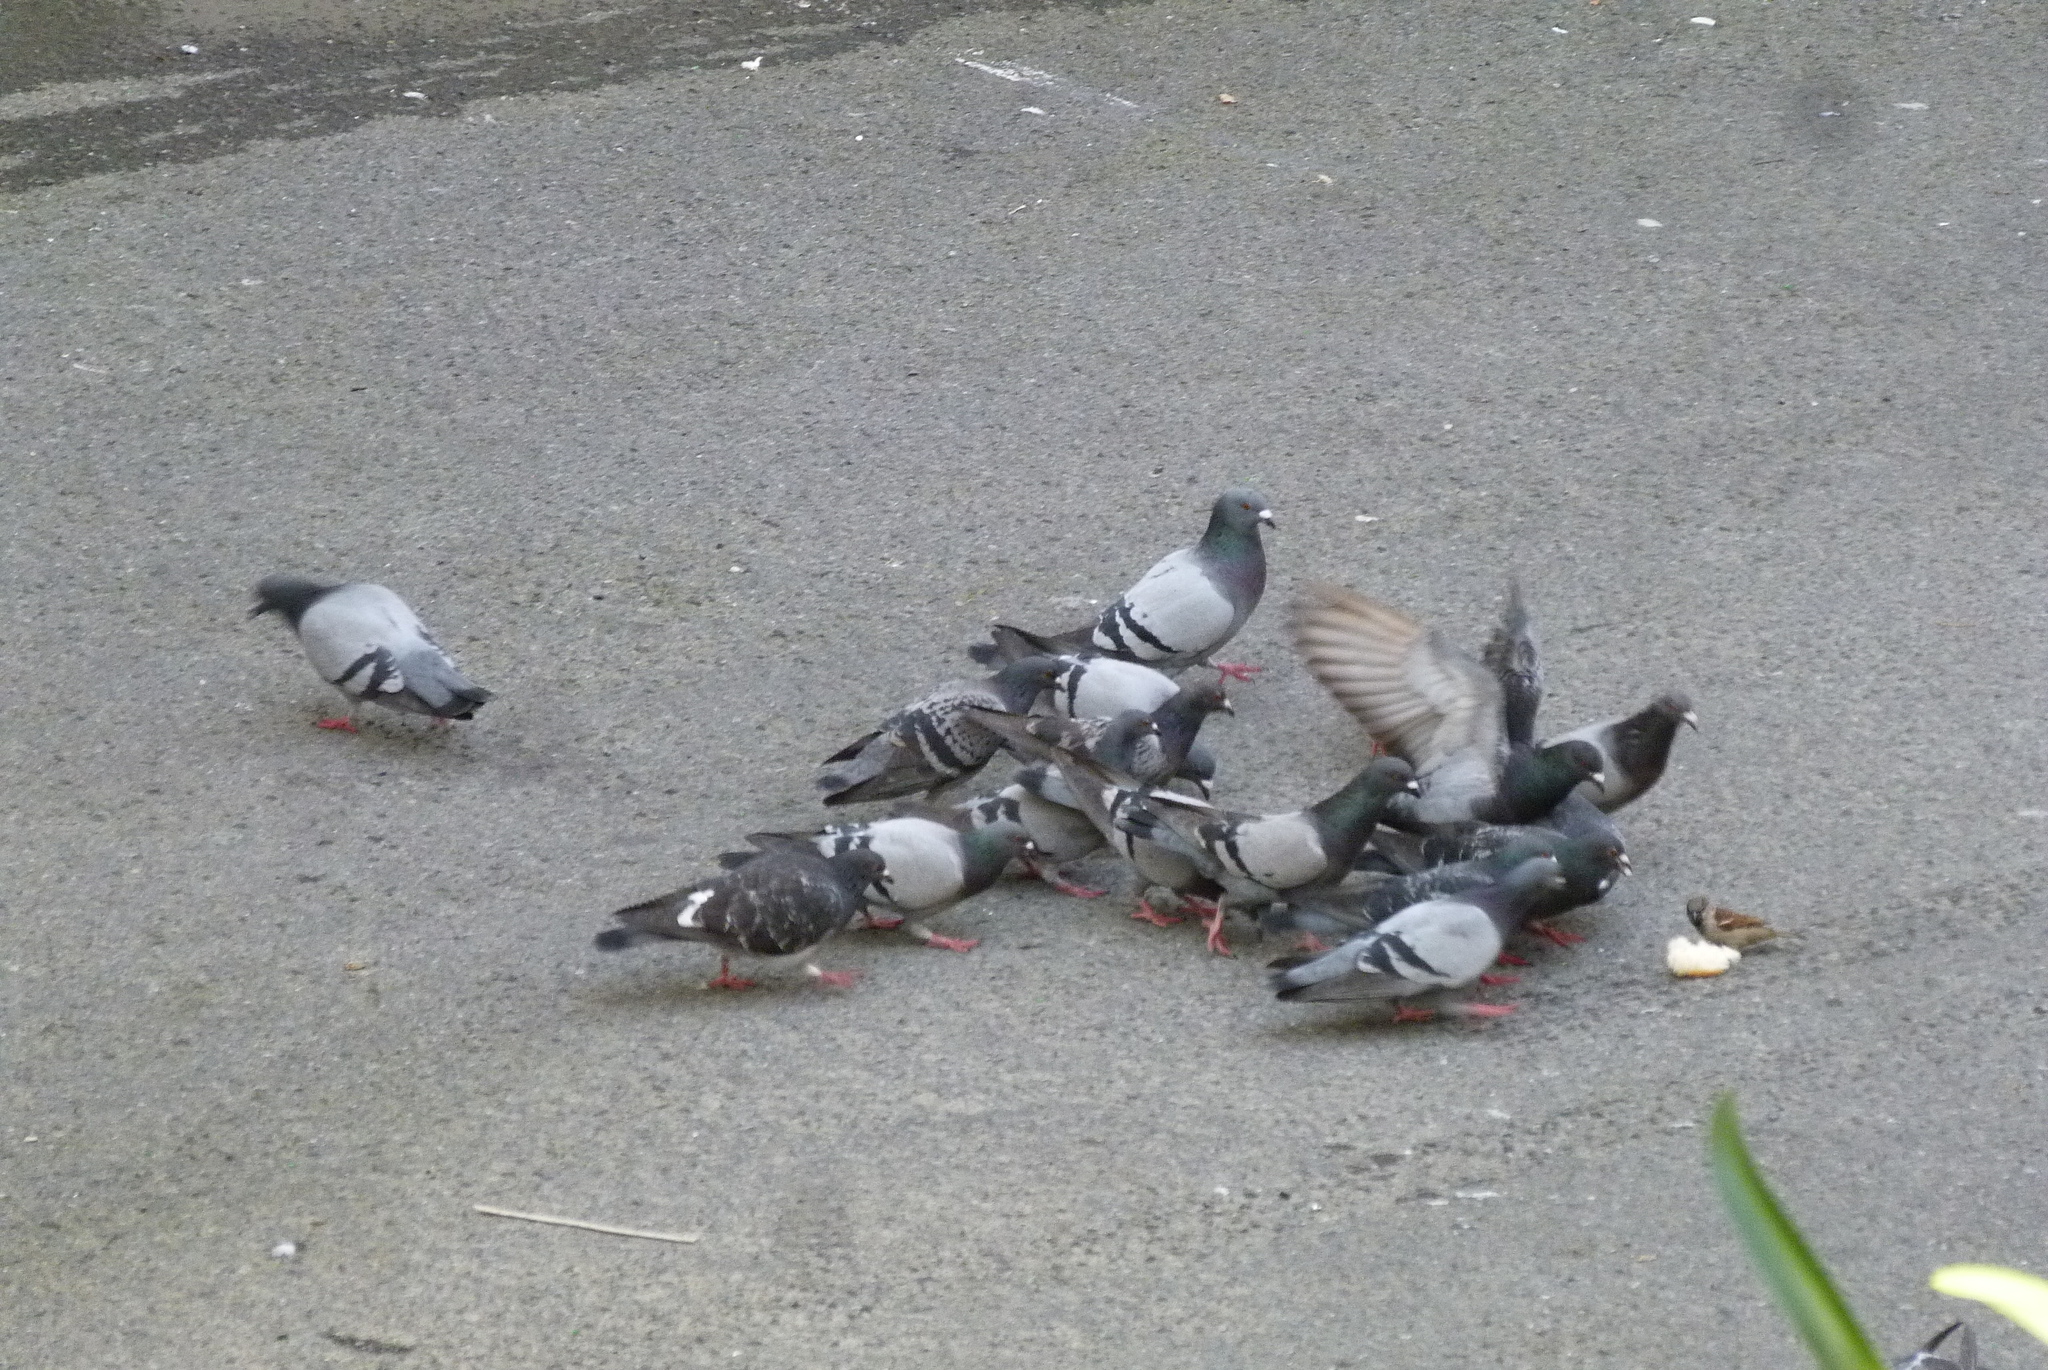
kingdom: Animalia
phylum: Chordata
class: Aves
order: Columbiformes
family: Columbidae
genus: Columba
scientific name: Columba livia
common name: Rock pigeon
